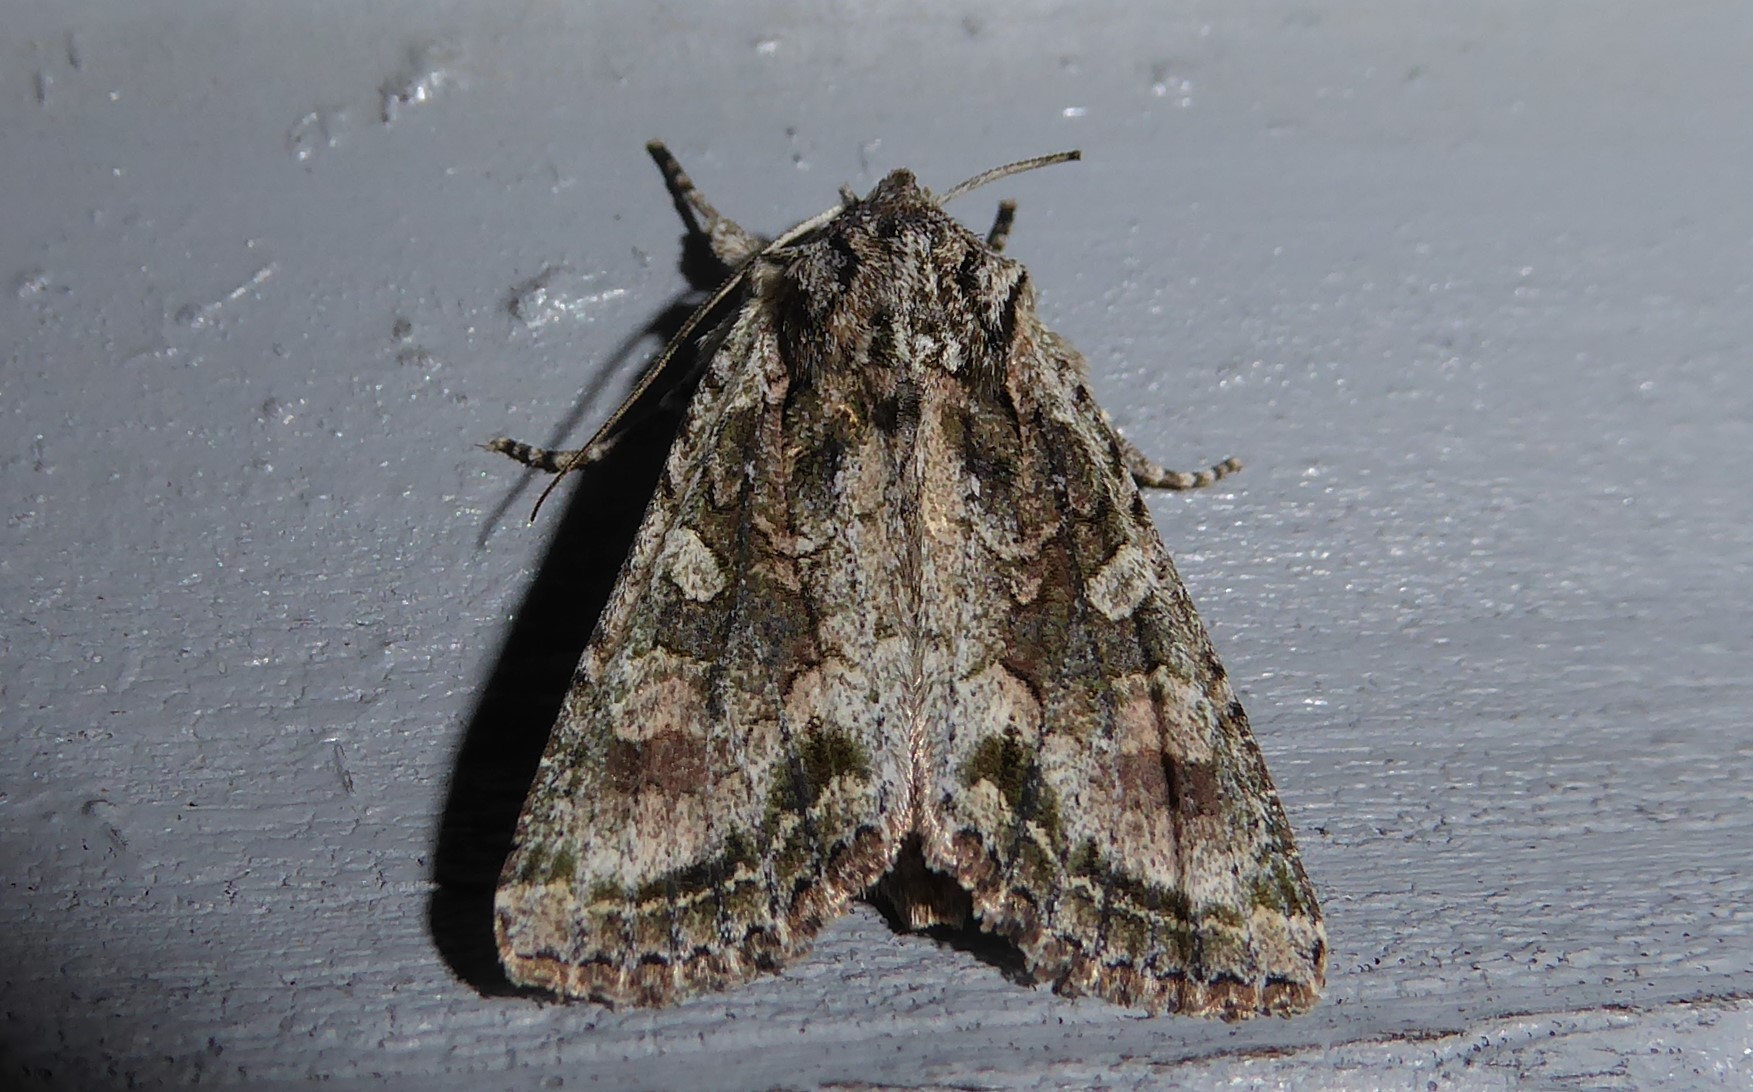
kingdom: Animalia
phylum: Arthropoda
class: Insecta
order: Lepidoptera
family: Noctuidae
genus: Ichneutica
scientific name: Ichneutica mutans
